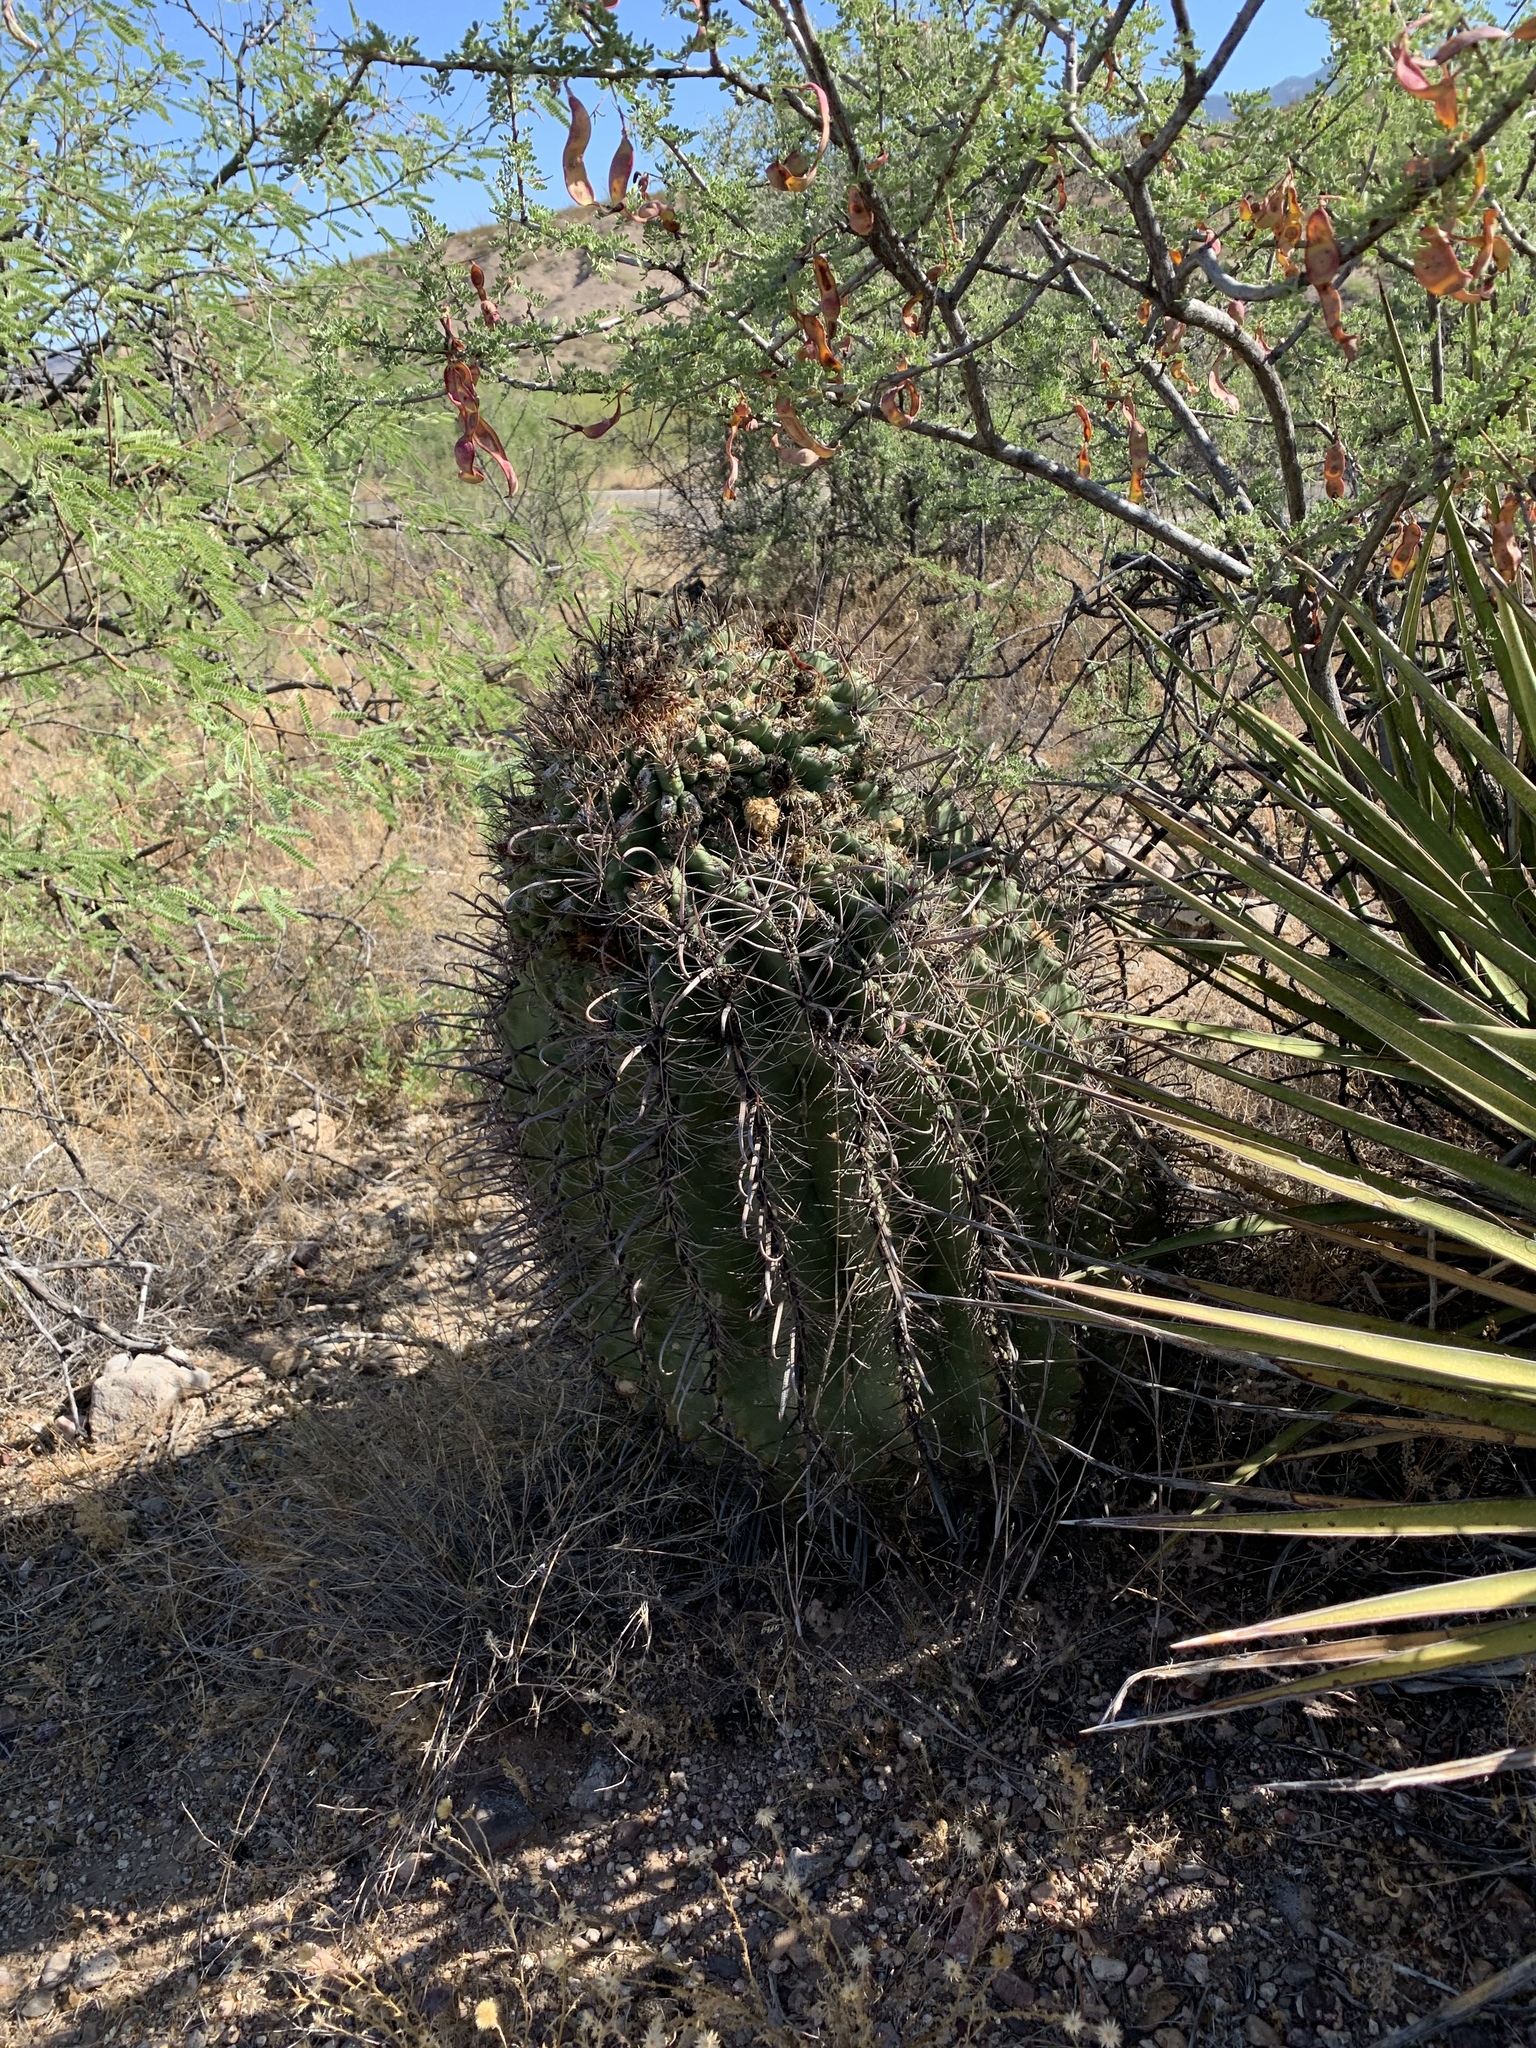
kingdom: Plantae
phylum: Tracheophyta
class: Magnoliopsida
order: Caryophyllales
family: Cactaceae
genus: Ferocactus
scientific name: Ferocactus wislizeni
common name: Candy barrel cactus
